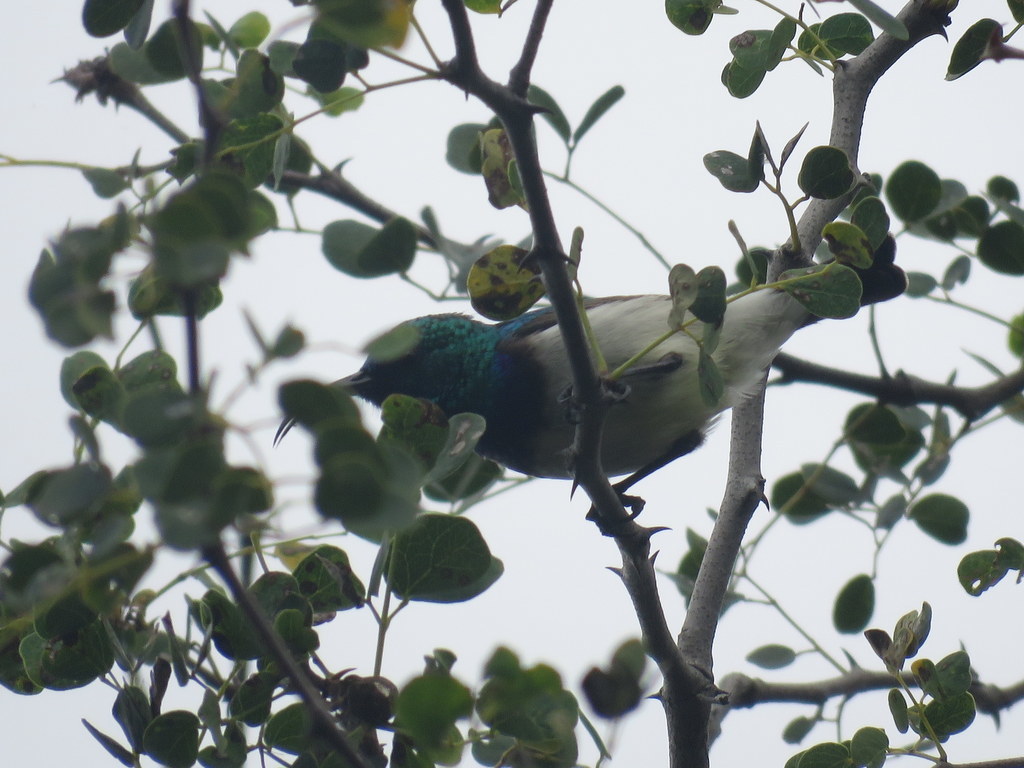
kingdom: Animalia
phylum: Chordata
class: Aves
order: Passeriformes
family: Nectariniidae
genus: Cinnyris
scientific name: Cinnyris talatala
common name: White-bellied sunbird
